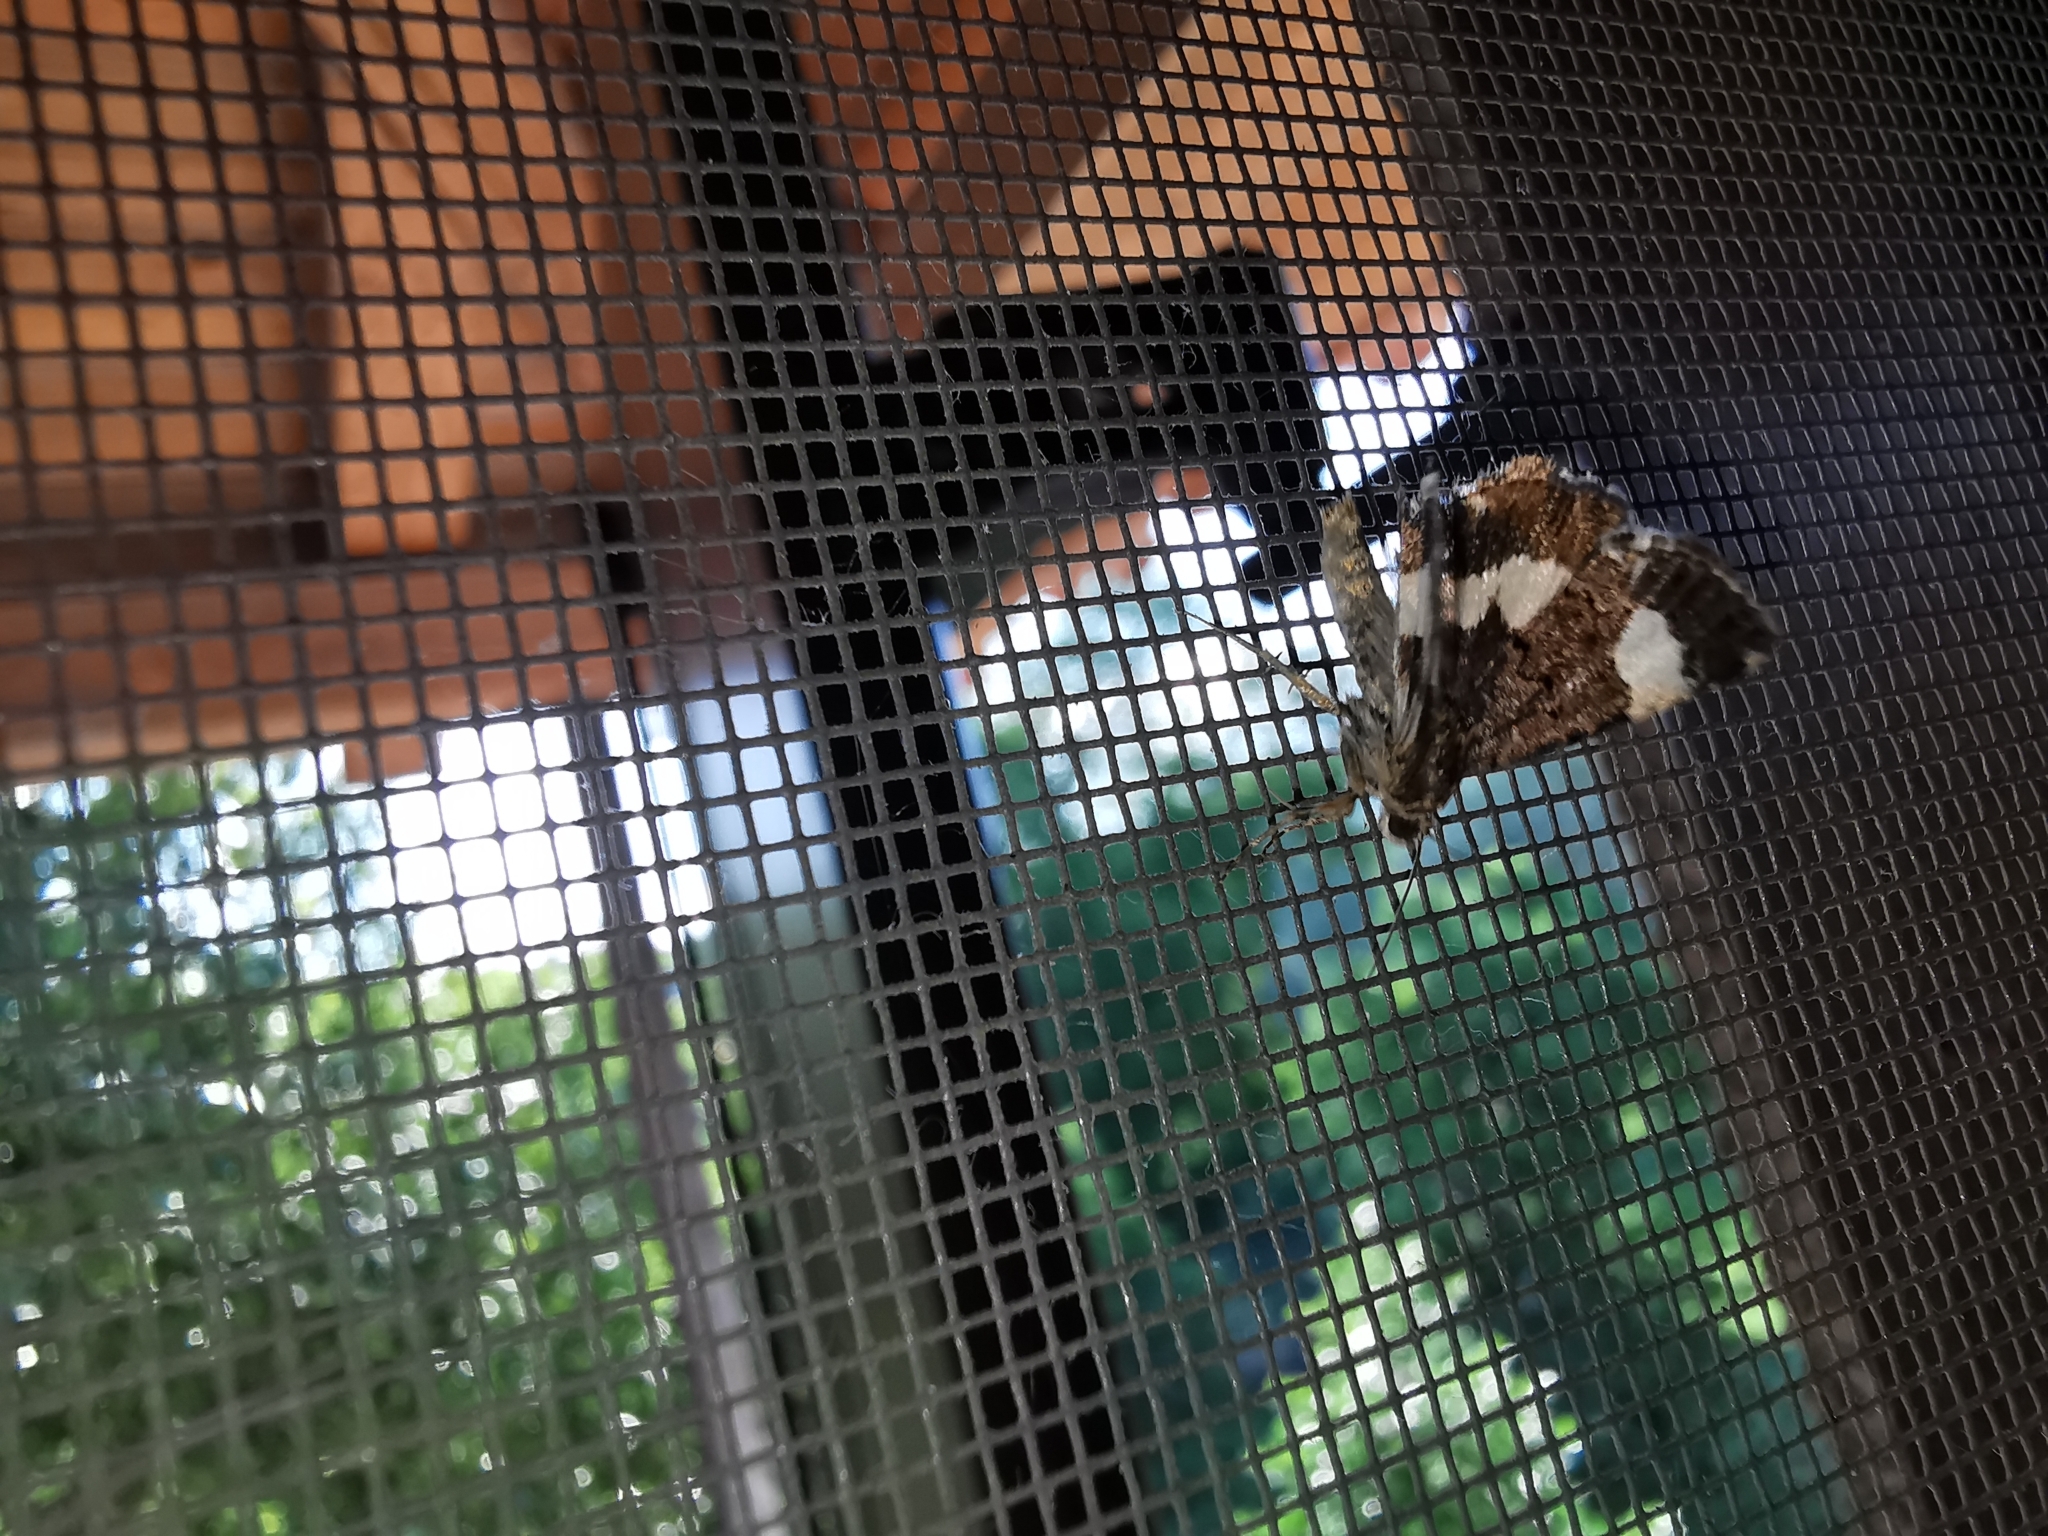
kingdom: Animalia
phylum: Arthropoda
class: Insecta
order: Lepidoptera
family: Erebidae
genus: Tyta
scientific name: Tyta luctuosa
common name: Four-spotted
